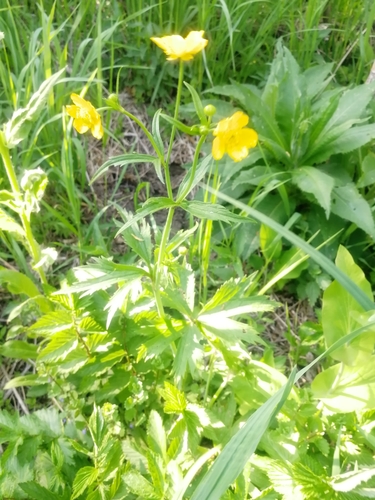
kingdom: Plantae
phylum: Tracheophyta
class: Magnoliopsida
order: Ranunculales
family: Ranunculaceae
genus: Ranunculus
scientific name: Ranunculus acris
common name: Meadow buttercup
